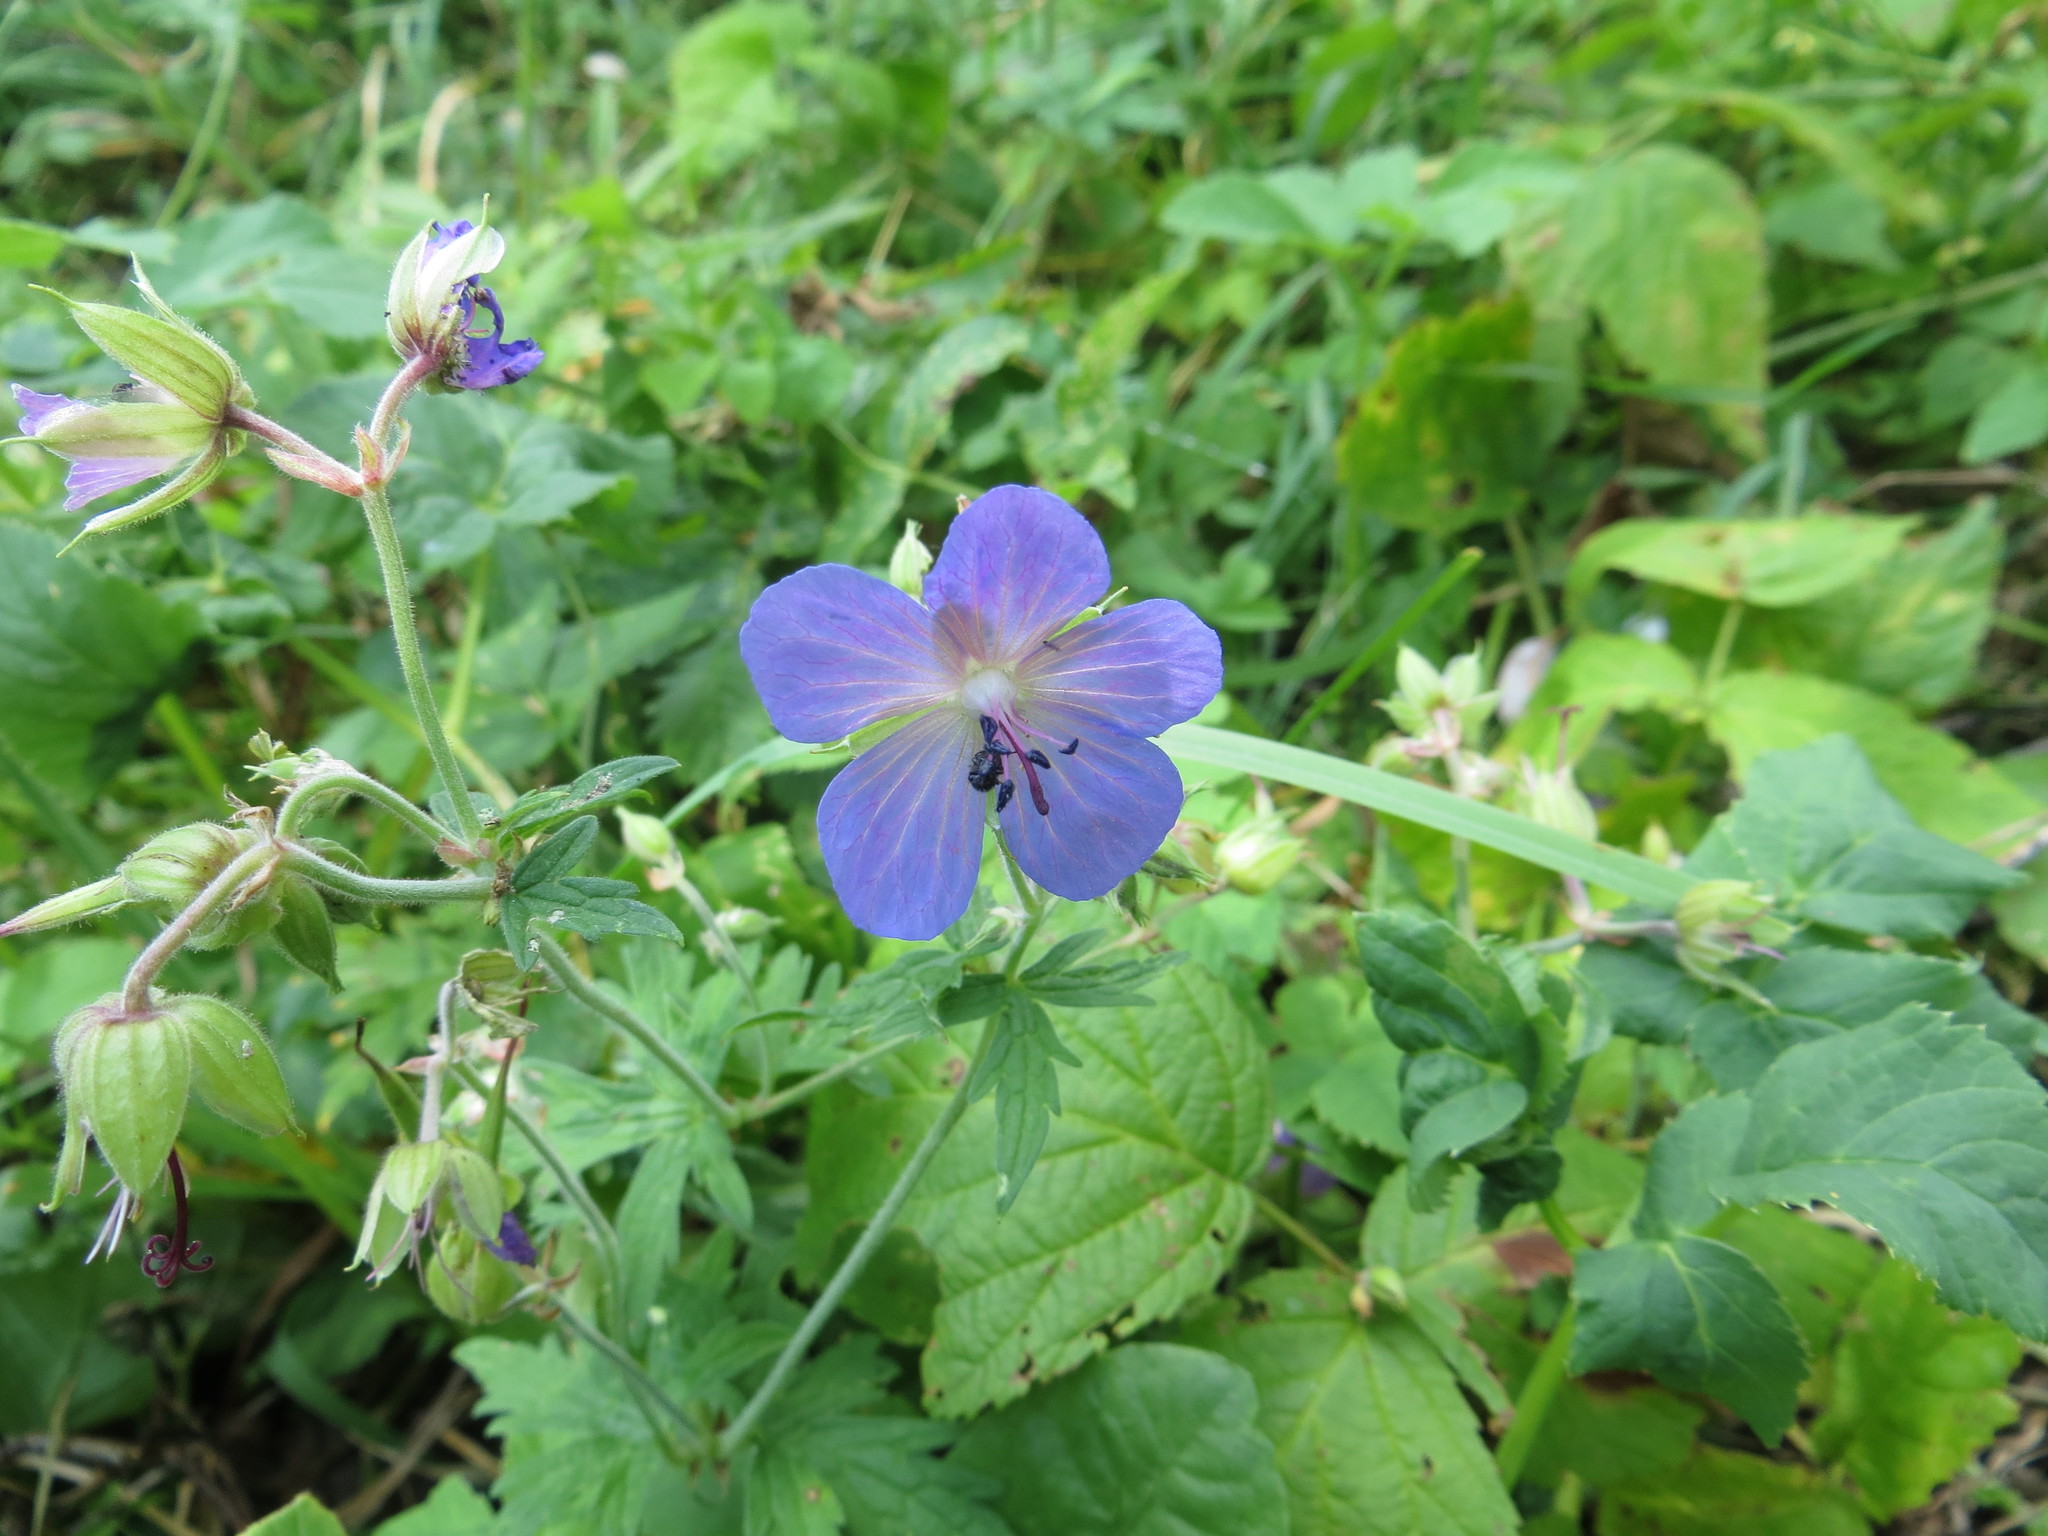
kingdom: Plantae
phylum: Tracheophyta
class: Magnoliopsida
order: Geraniales
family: Geraniaceae
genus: Geranium
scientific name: Geranium pratense
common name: Meadow crane's-bill
